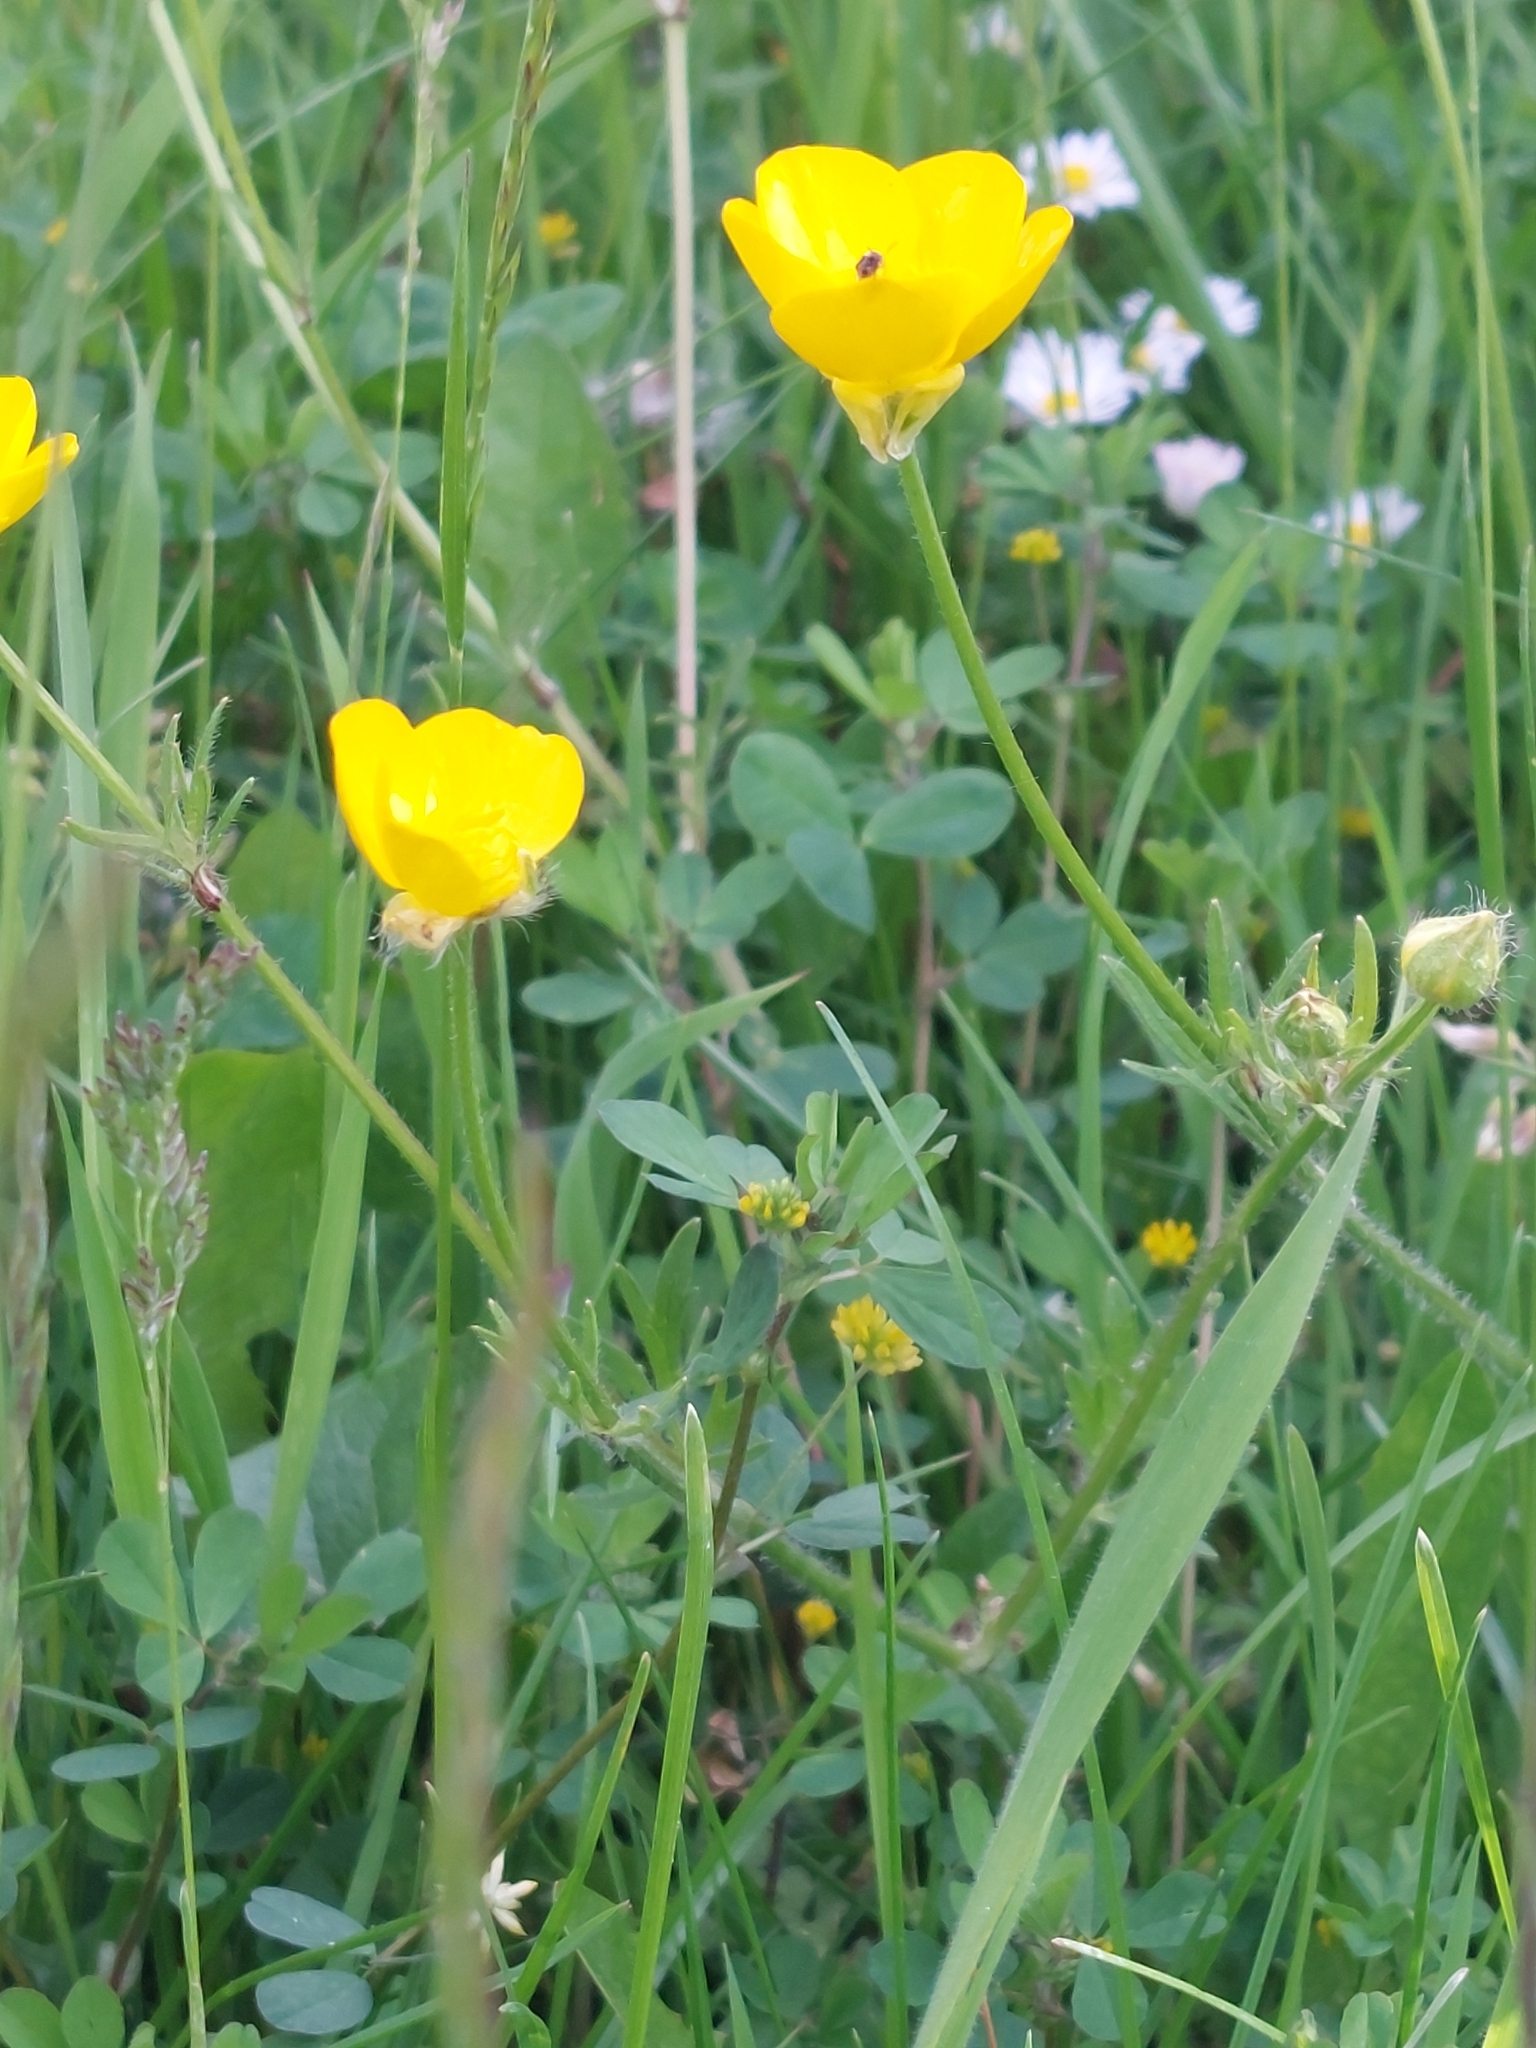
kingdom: Plantae
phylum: Tracheophyta
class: Magnoliopsida
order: Ranunculales
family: Ranunculaceae
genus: Ranunculus
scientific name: Ranunculus bulbosus
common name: Bulbous buttercup
